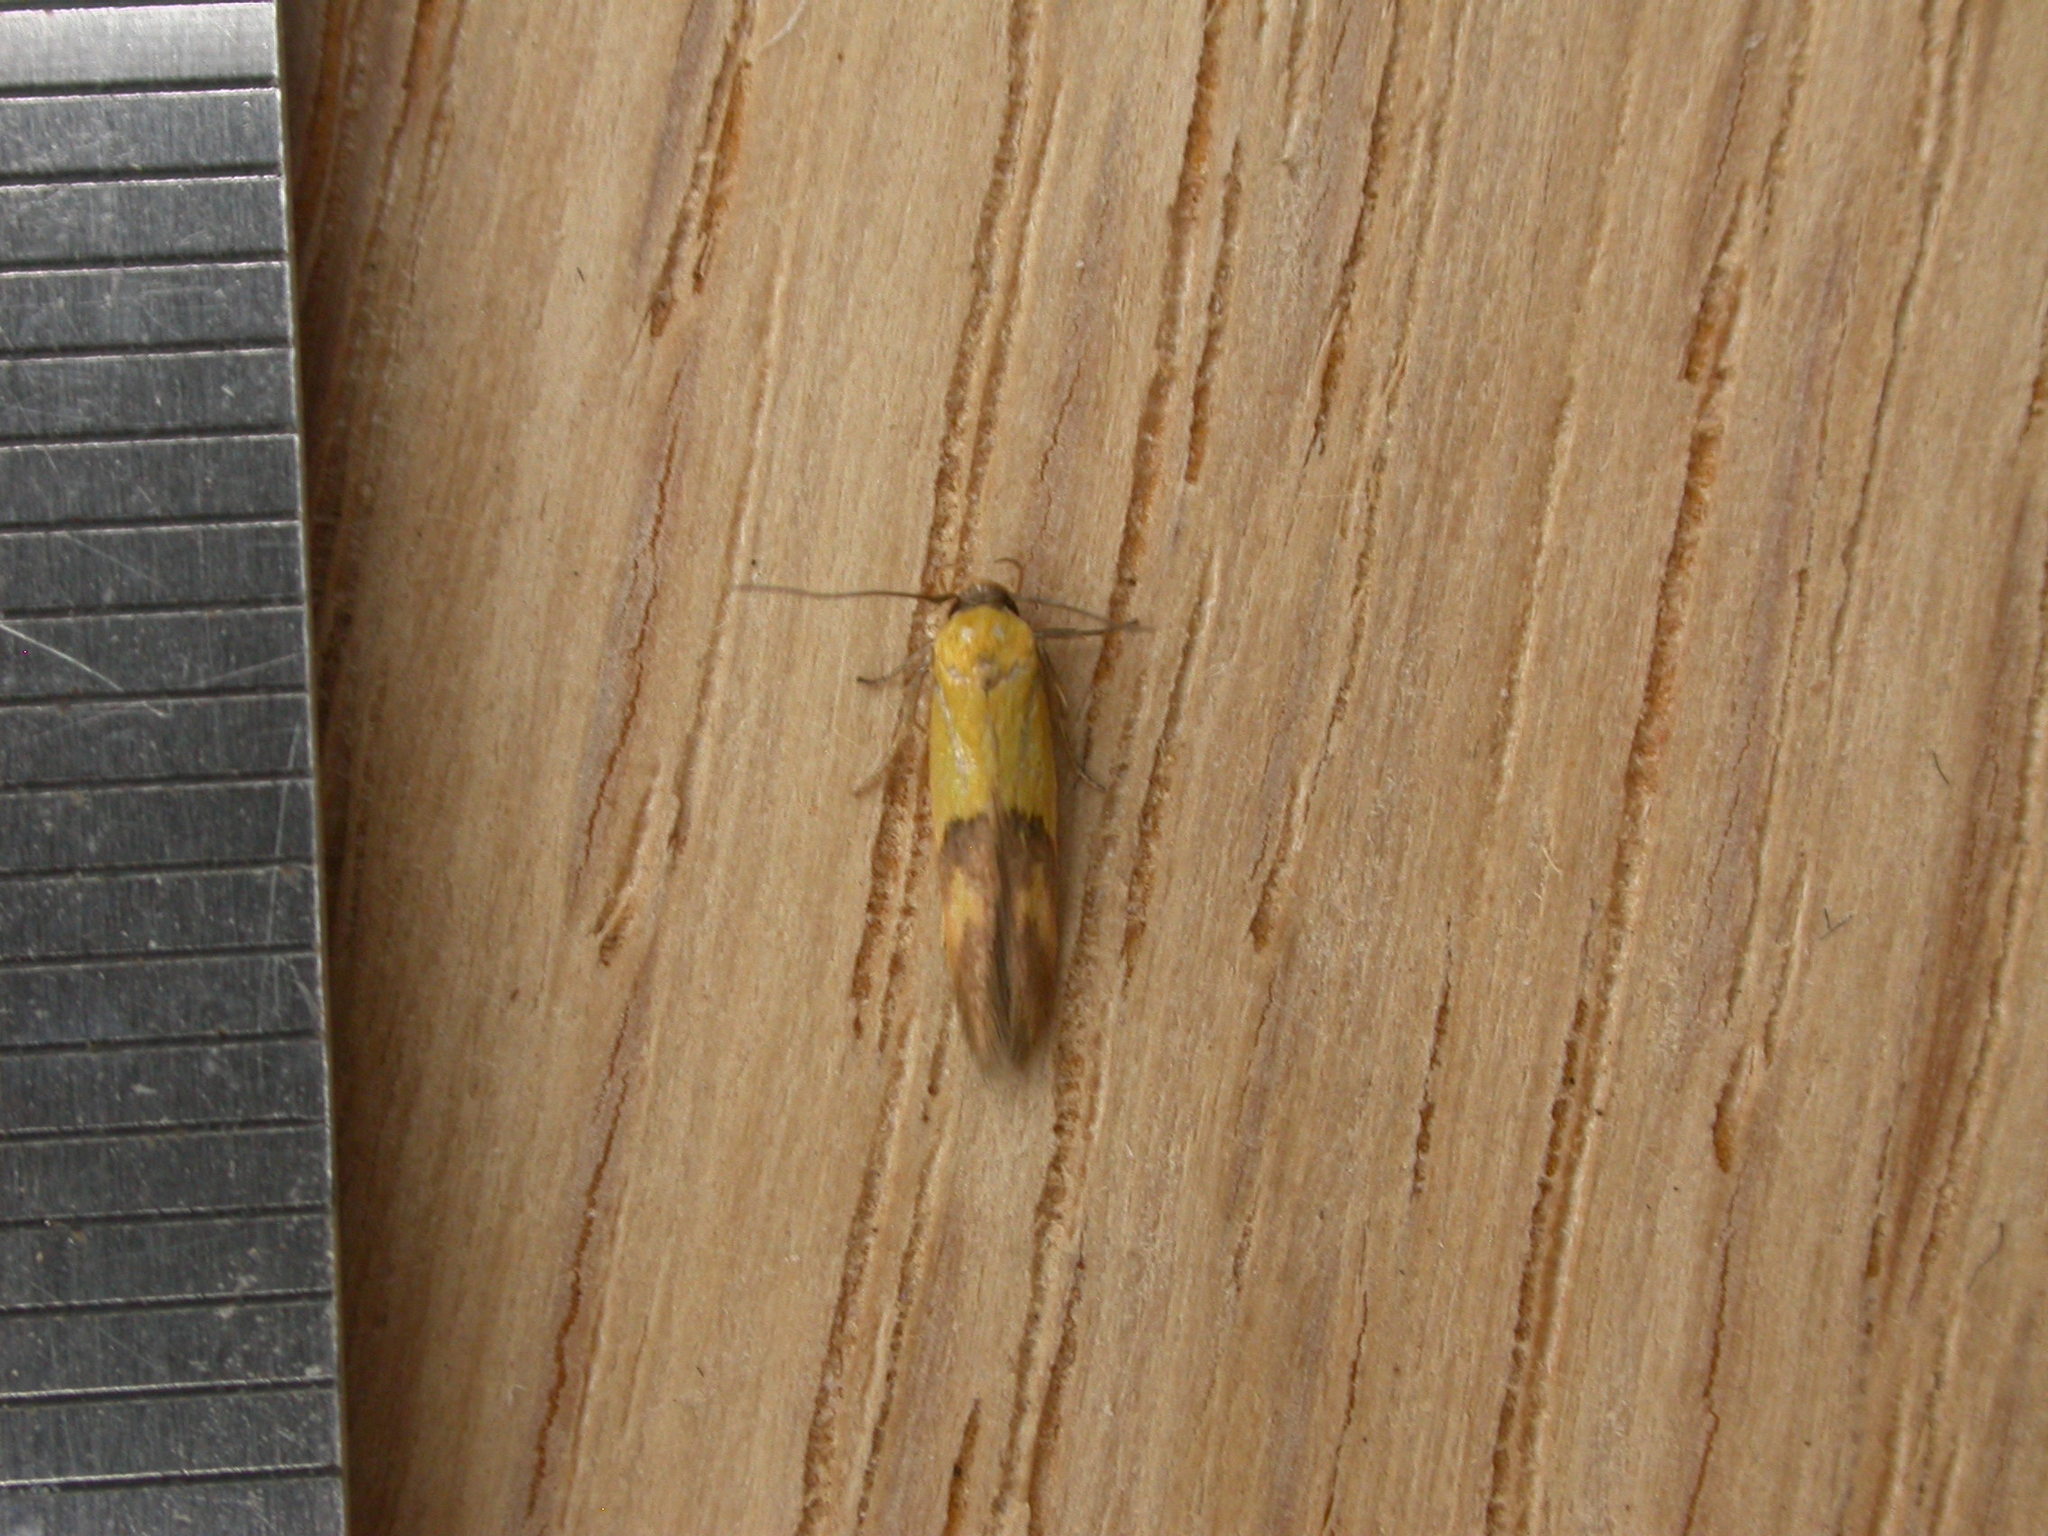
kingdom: Animalia
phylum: Arthropoda
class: Insecta
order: Lepidoptera
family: Stathmopodidae
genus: Stathmopoda
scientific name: Stathmopoda auriferella
